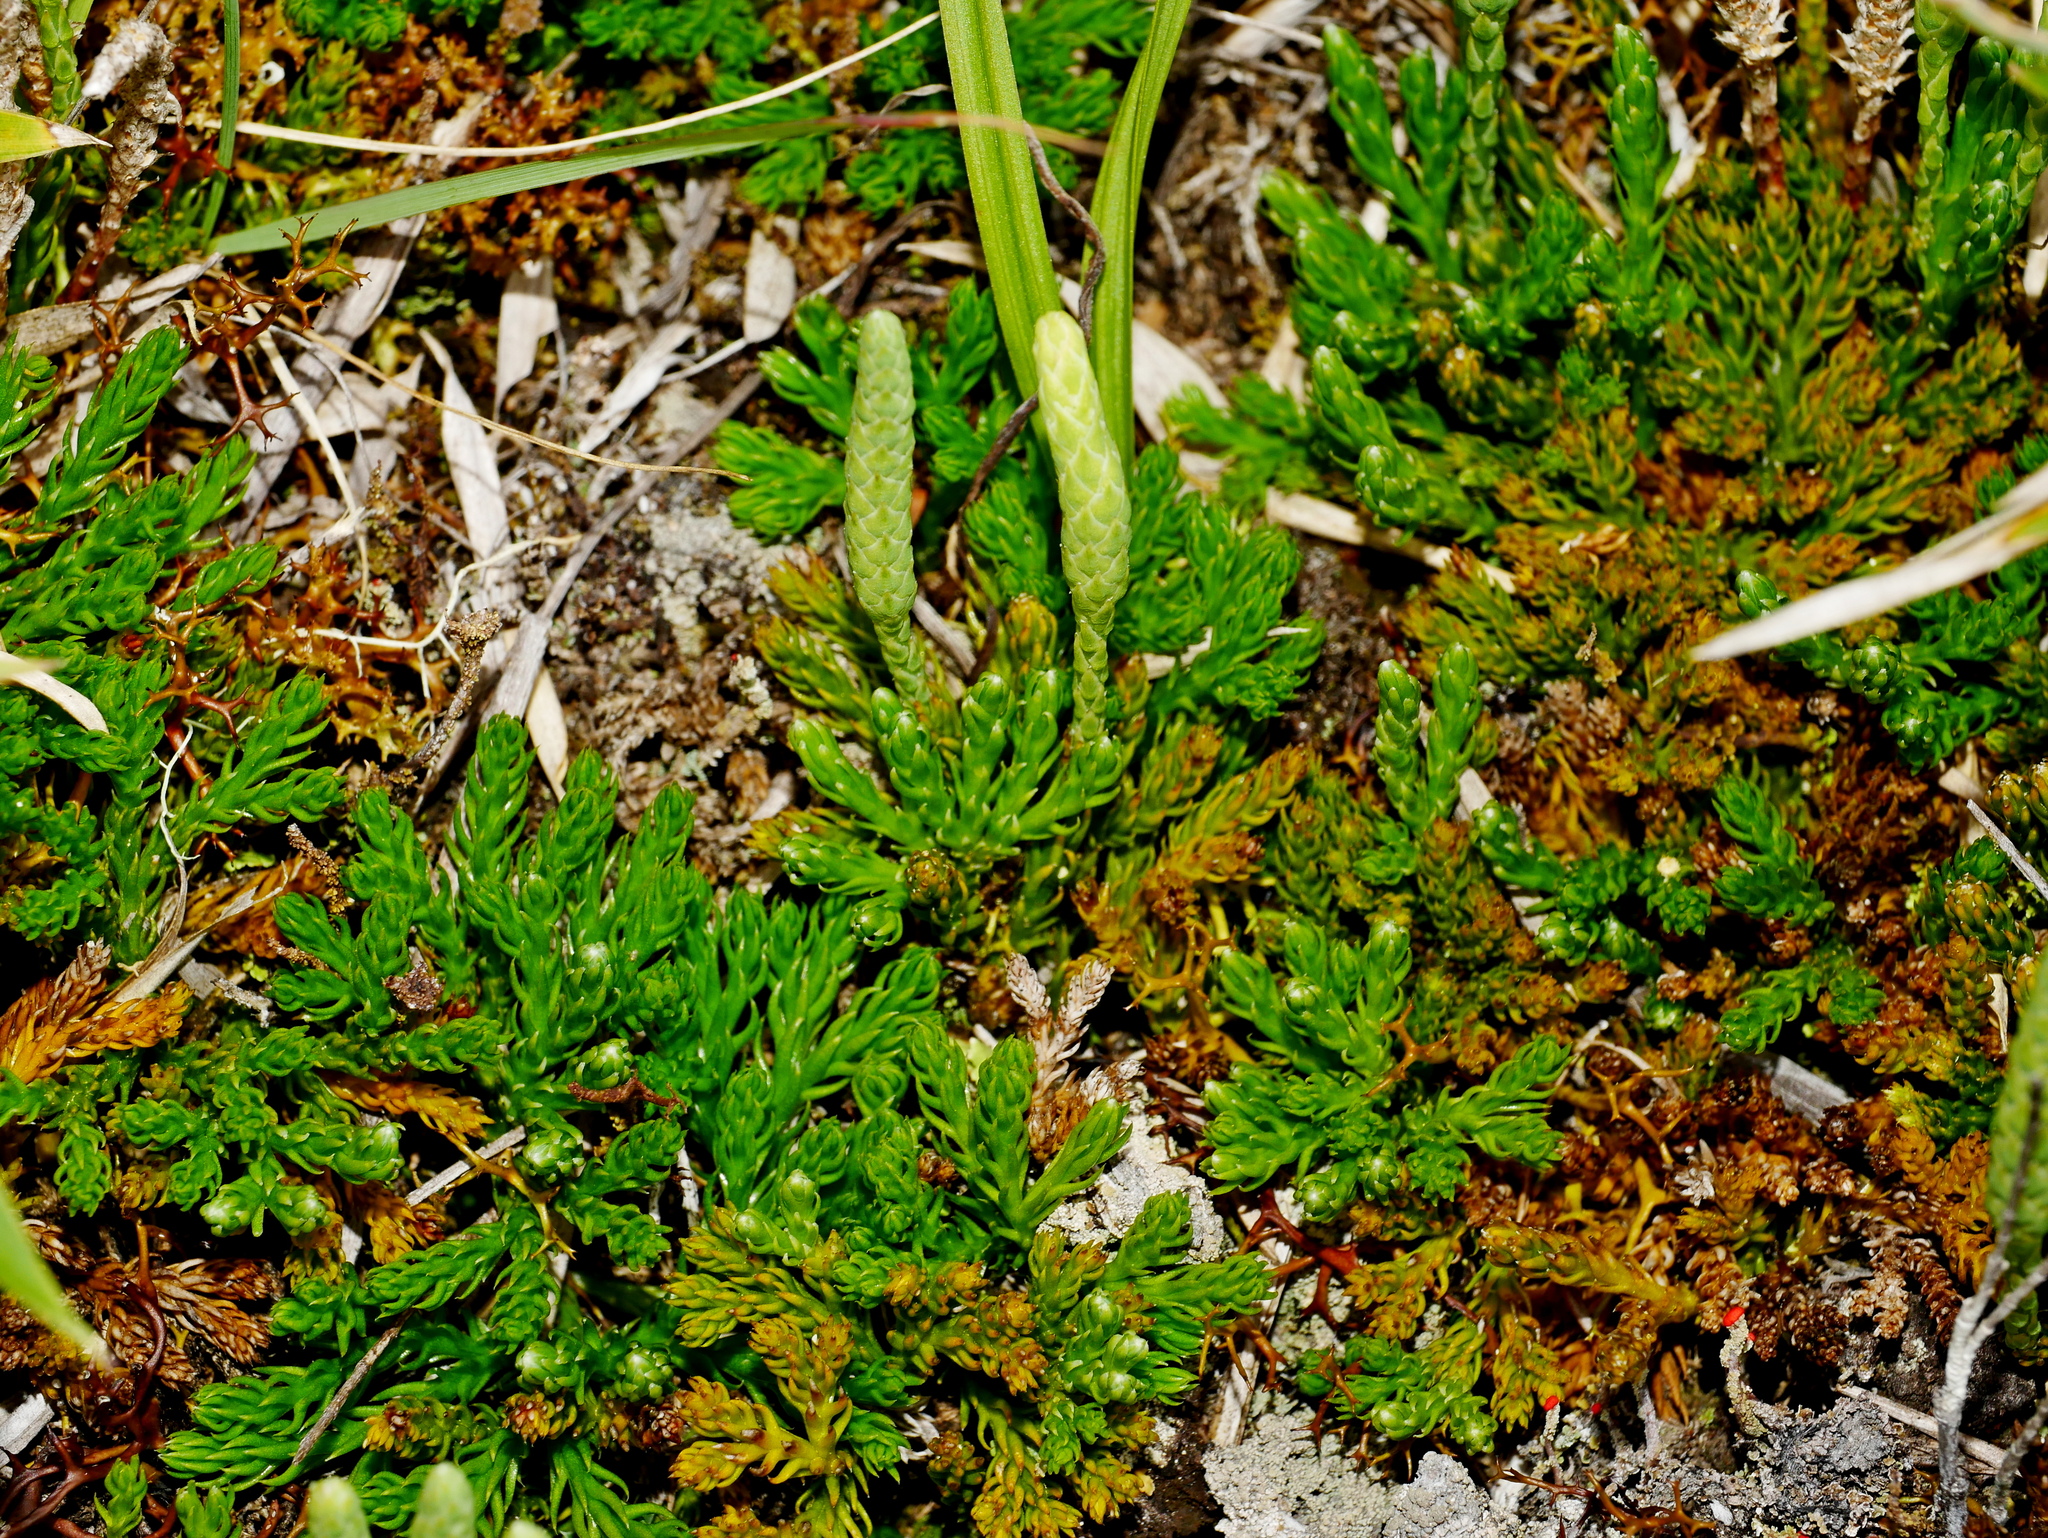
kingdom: Plantae
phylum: Tracheophyta
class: Lycopodiopsida
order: Lycopodiales
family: Lycopodiaceae
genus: Diphasiastrum
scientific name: Diphasiastrum veitchii
